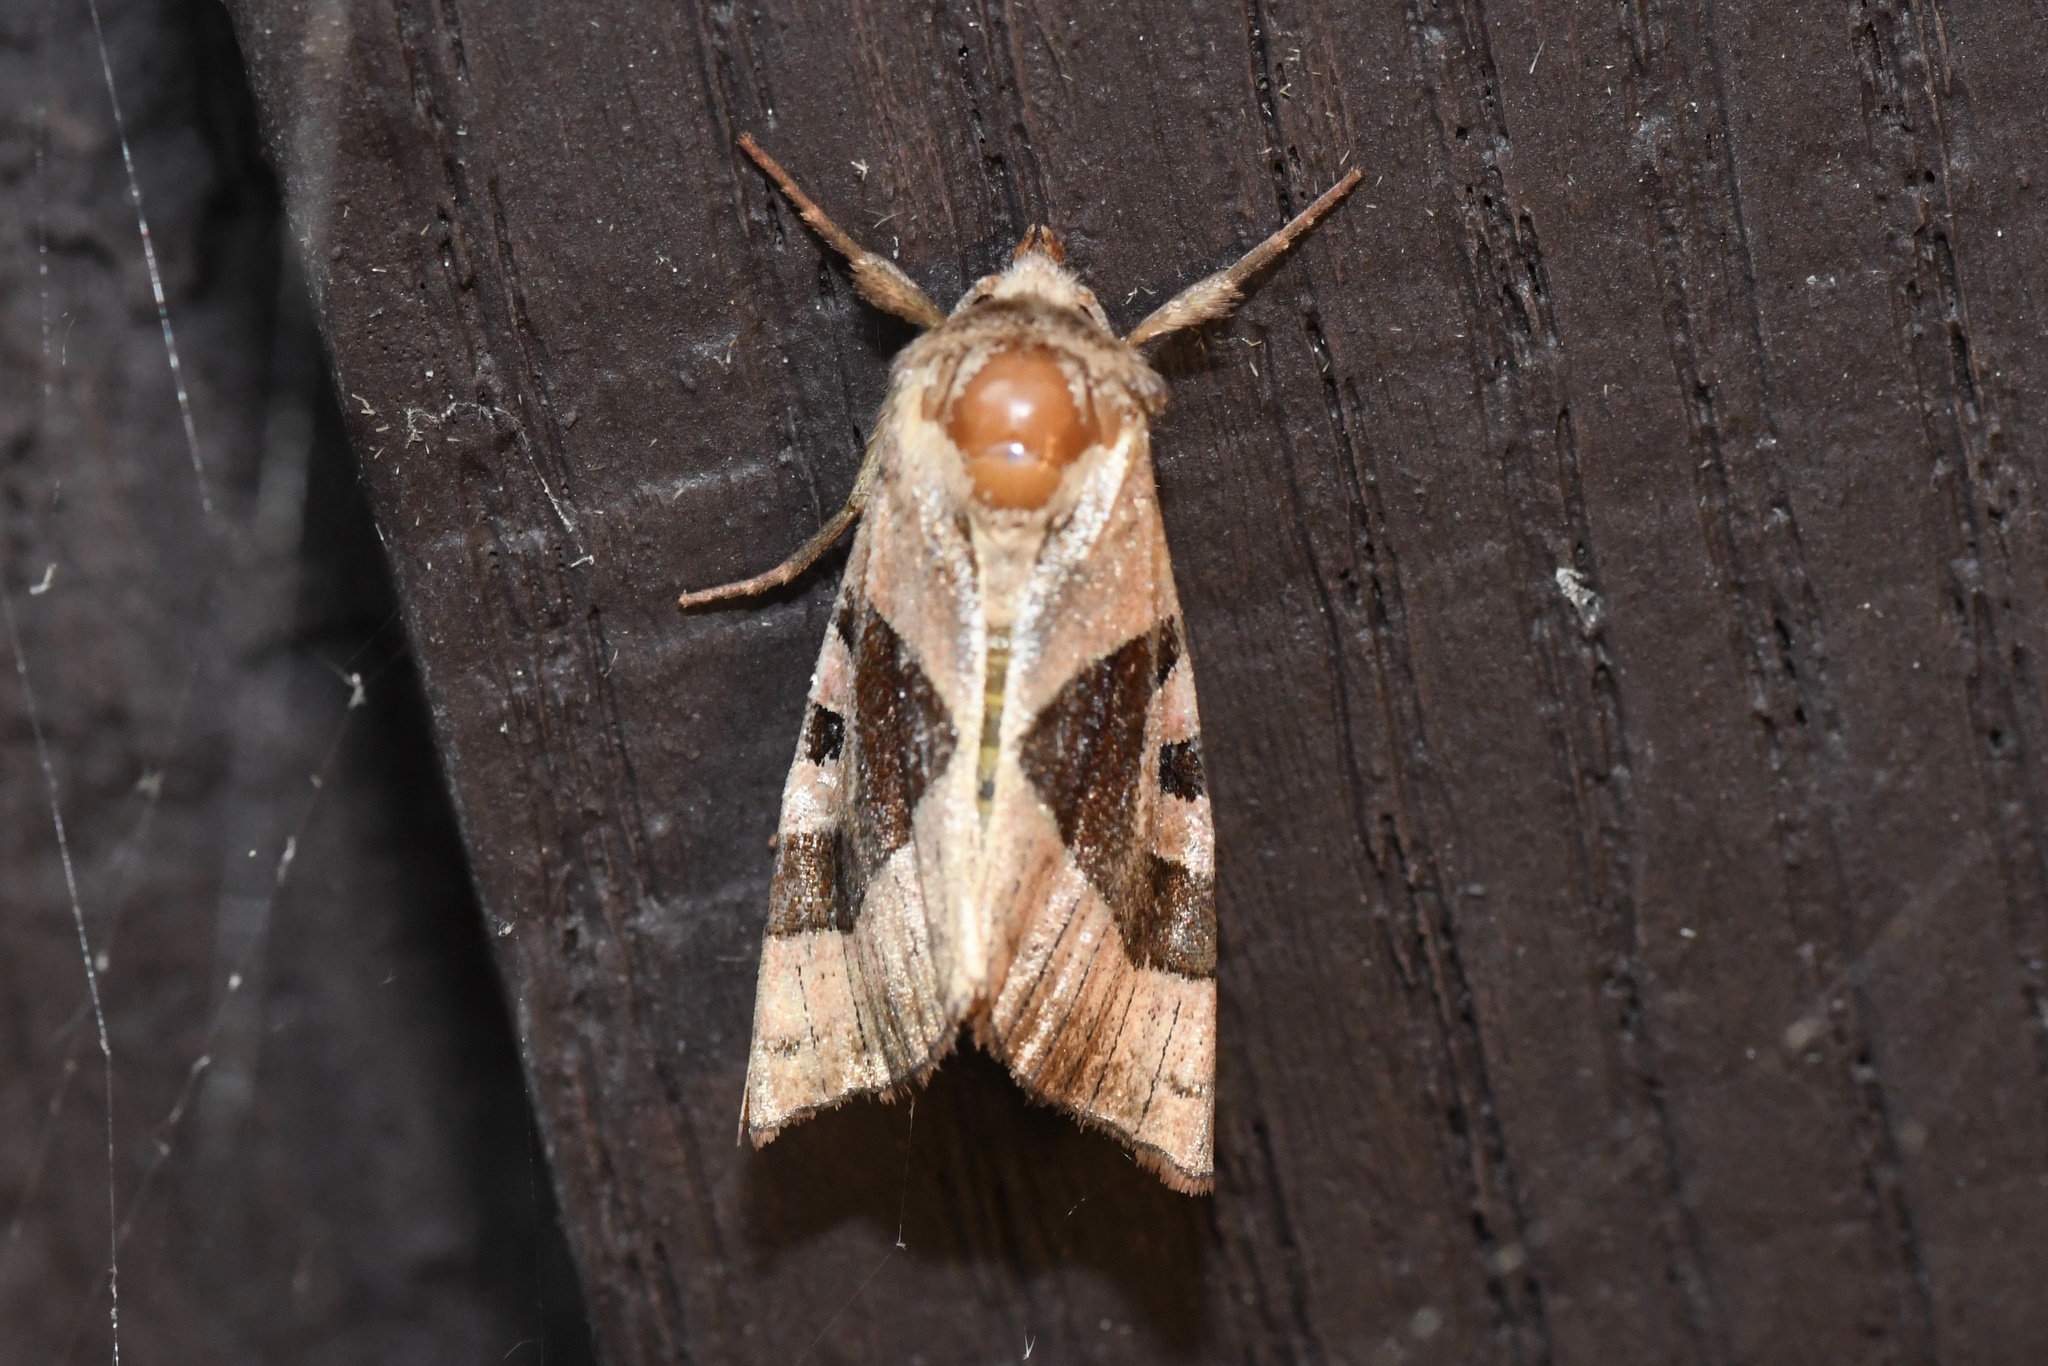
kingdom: Animalia
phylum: Arthropoda
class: Insecta
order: Lepidoptera
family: Noctuidae
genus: Conservula
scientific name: Conservula anodonta
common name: Sharp angle shades
